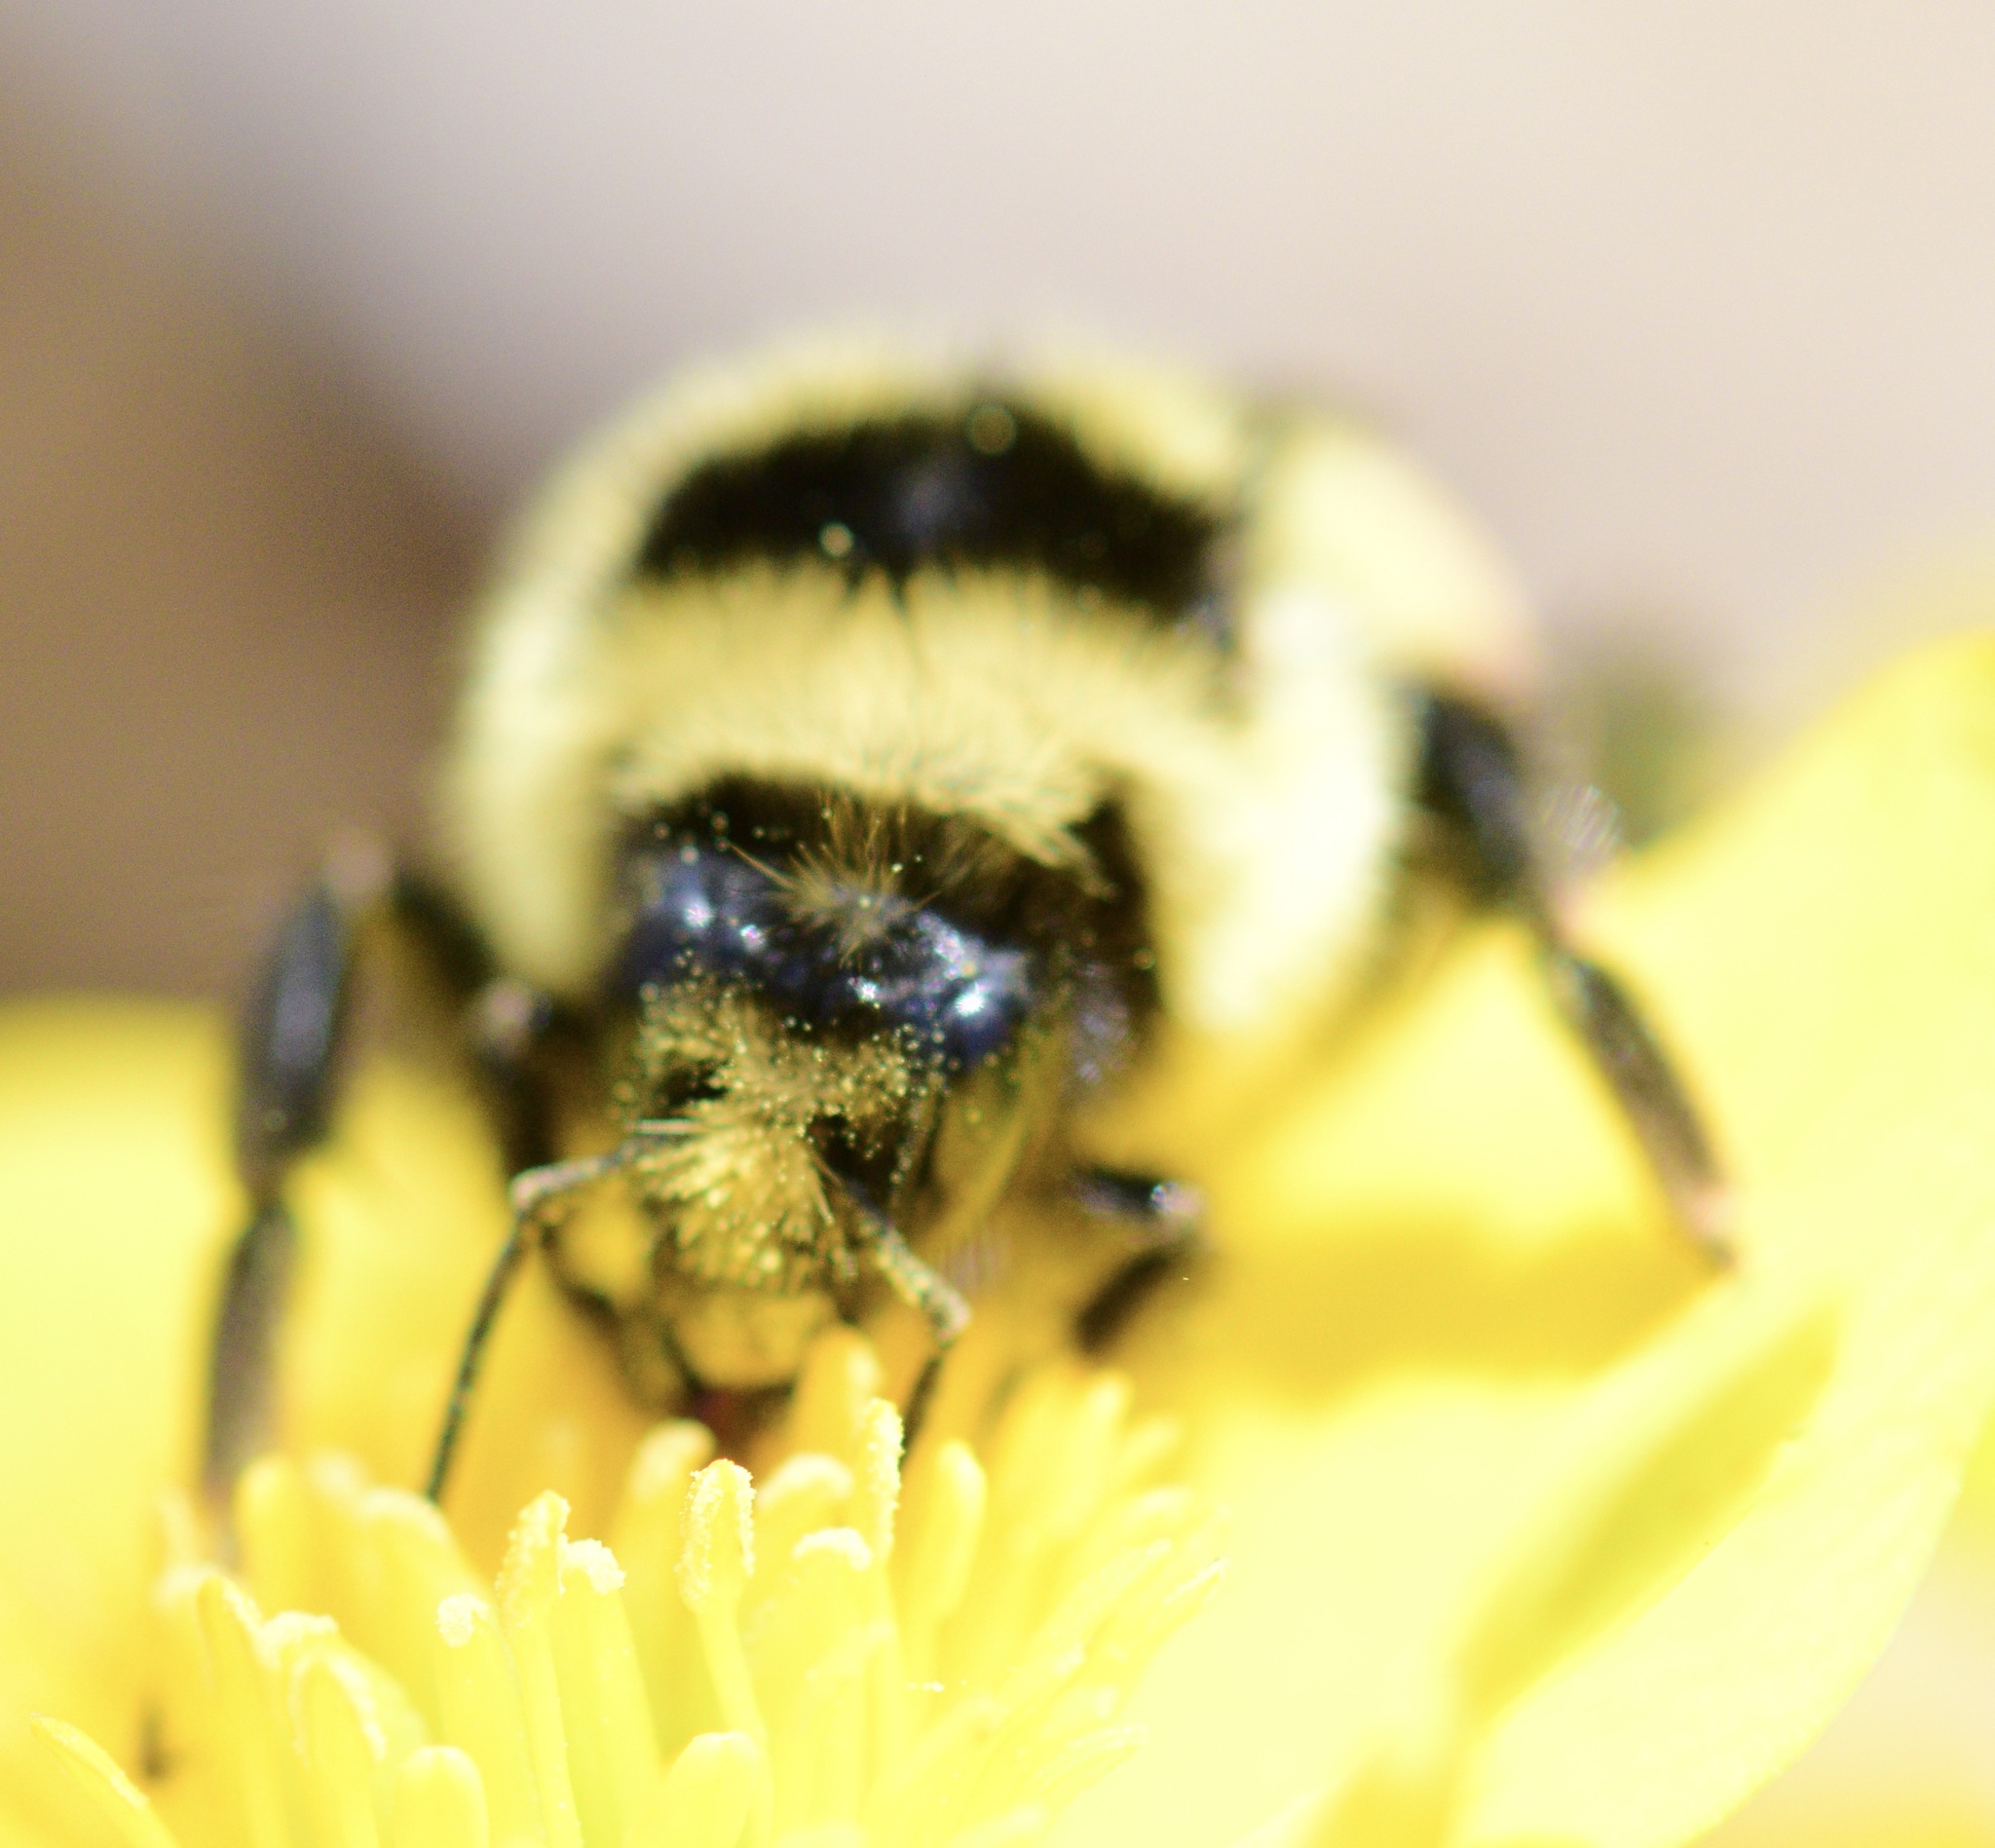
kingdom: Animalia
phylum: Arthropoda
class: Insecta
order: Hymenoptera
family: Apidae
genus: Bombus
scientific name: Bombus ternarius
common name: Tri-colored bumble bee
